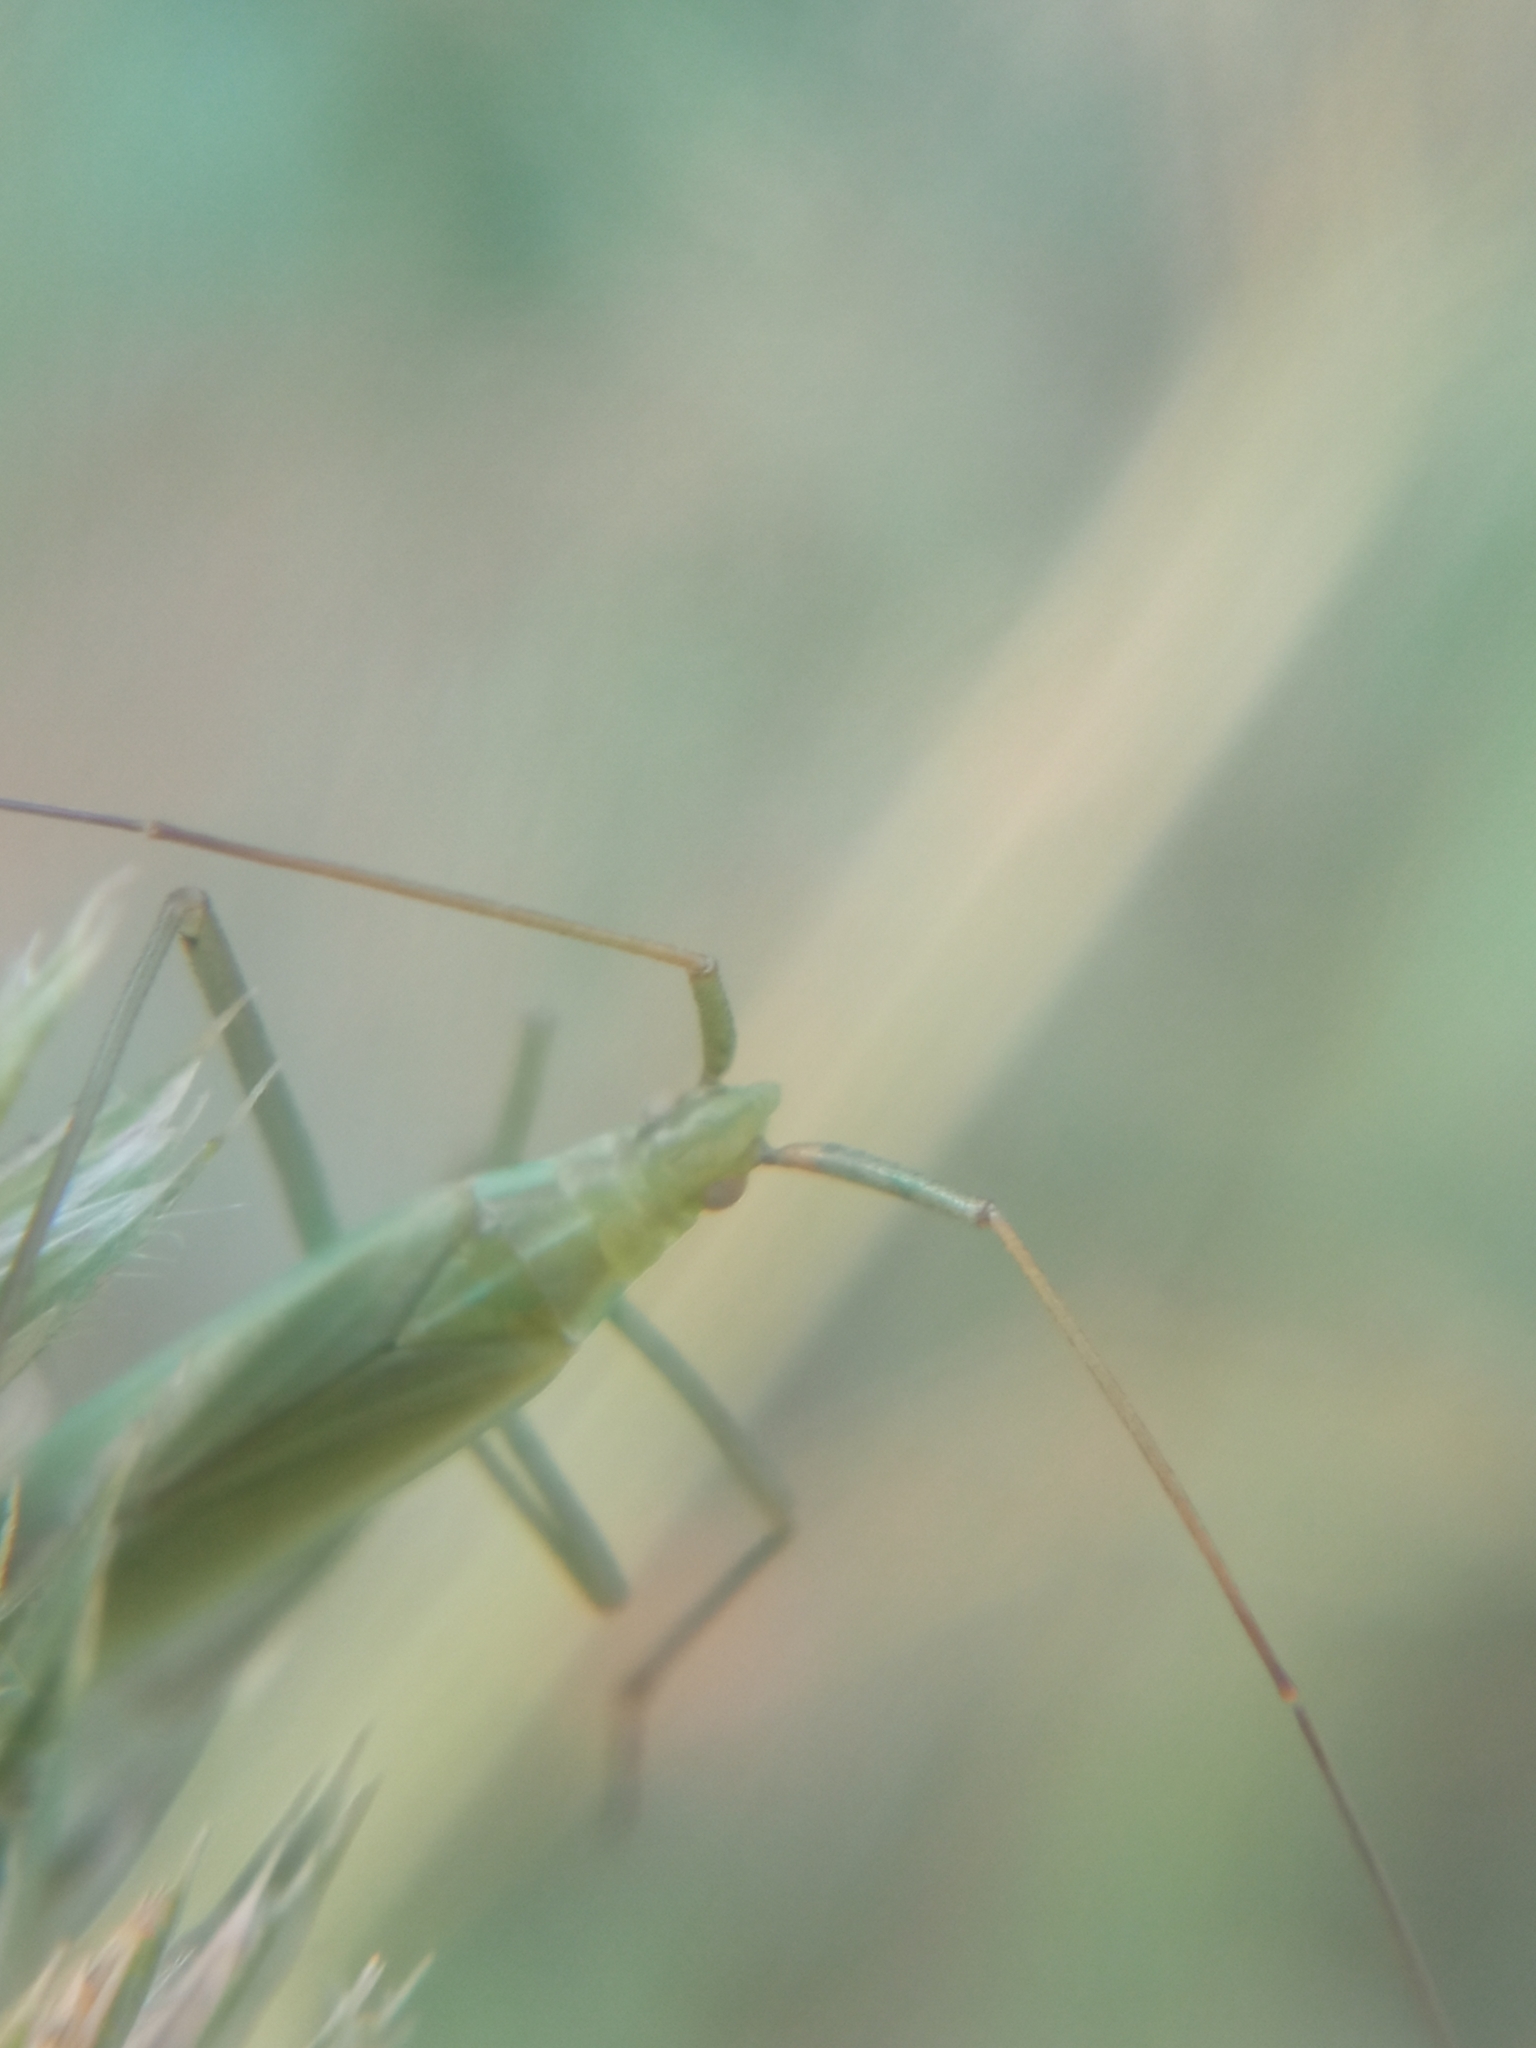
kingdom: Animalia
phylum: Arthropoda
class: Insecta
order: Hemiptera
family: Miridae
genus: Megaloceroea
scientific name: Megaloceroea recticornis
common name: Plant bug
